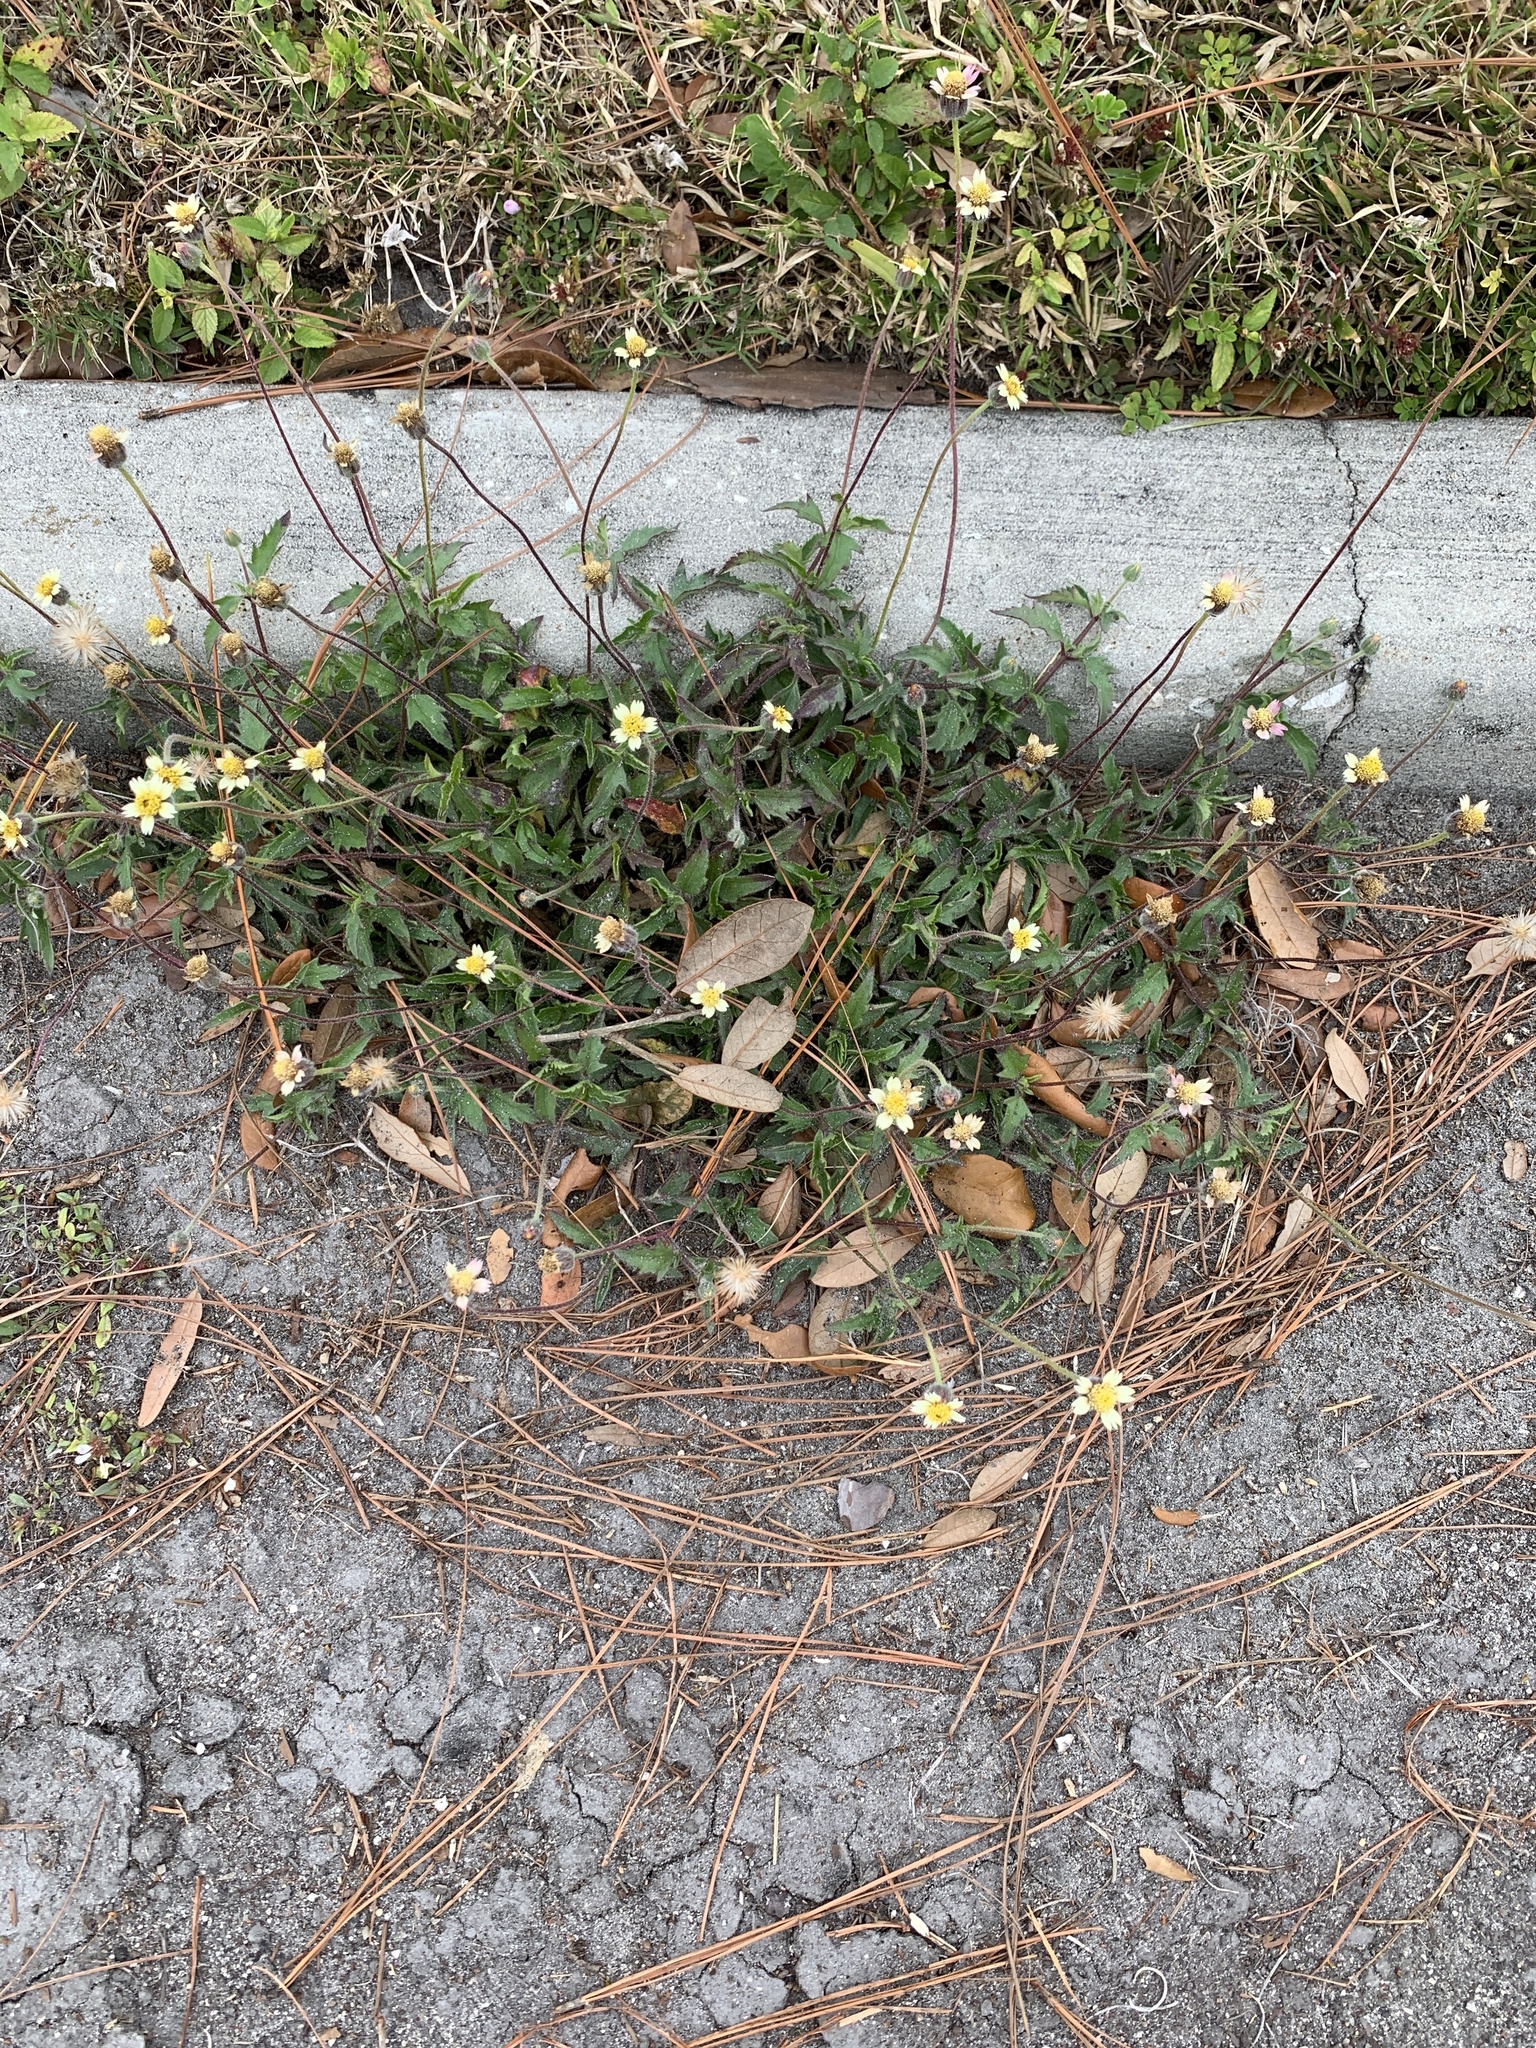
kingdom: Plantae
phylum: Tracheophyta
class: Magnoliopsida
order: Asterales
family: Asteraceae
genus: Tridax
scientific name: Tridax procumbens
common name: Coatbuttons
